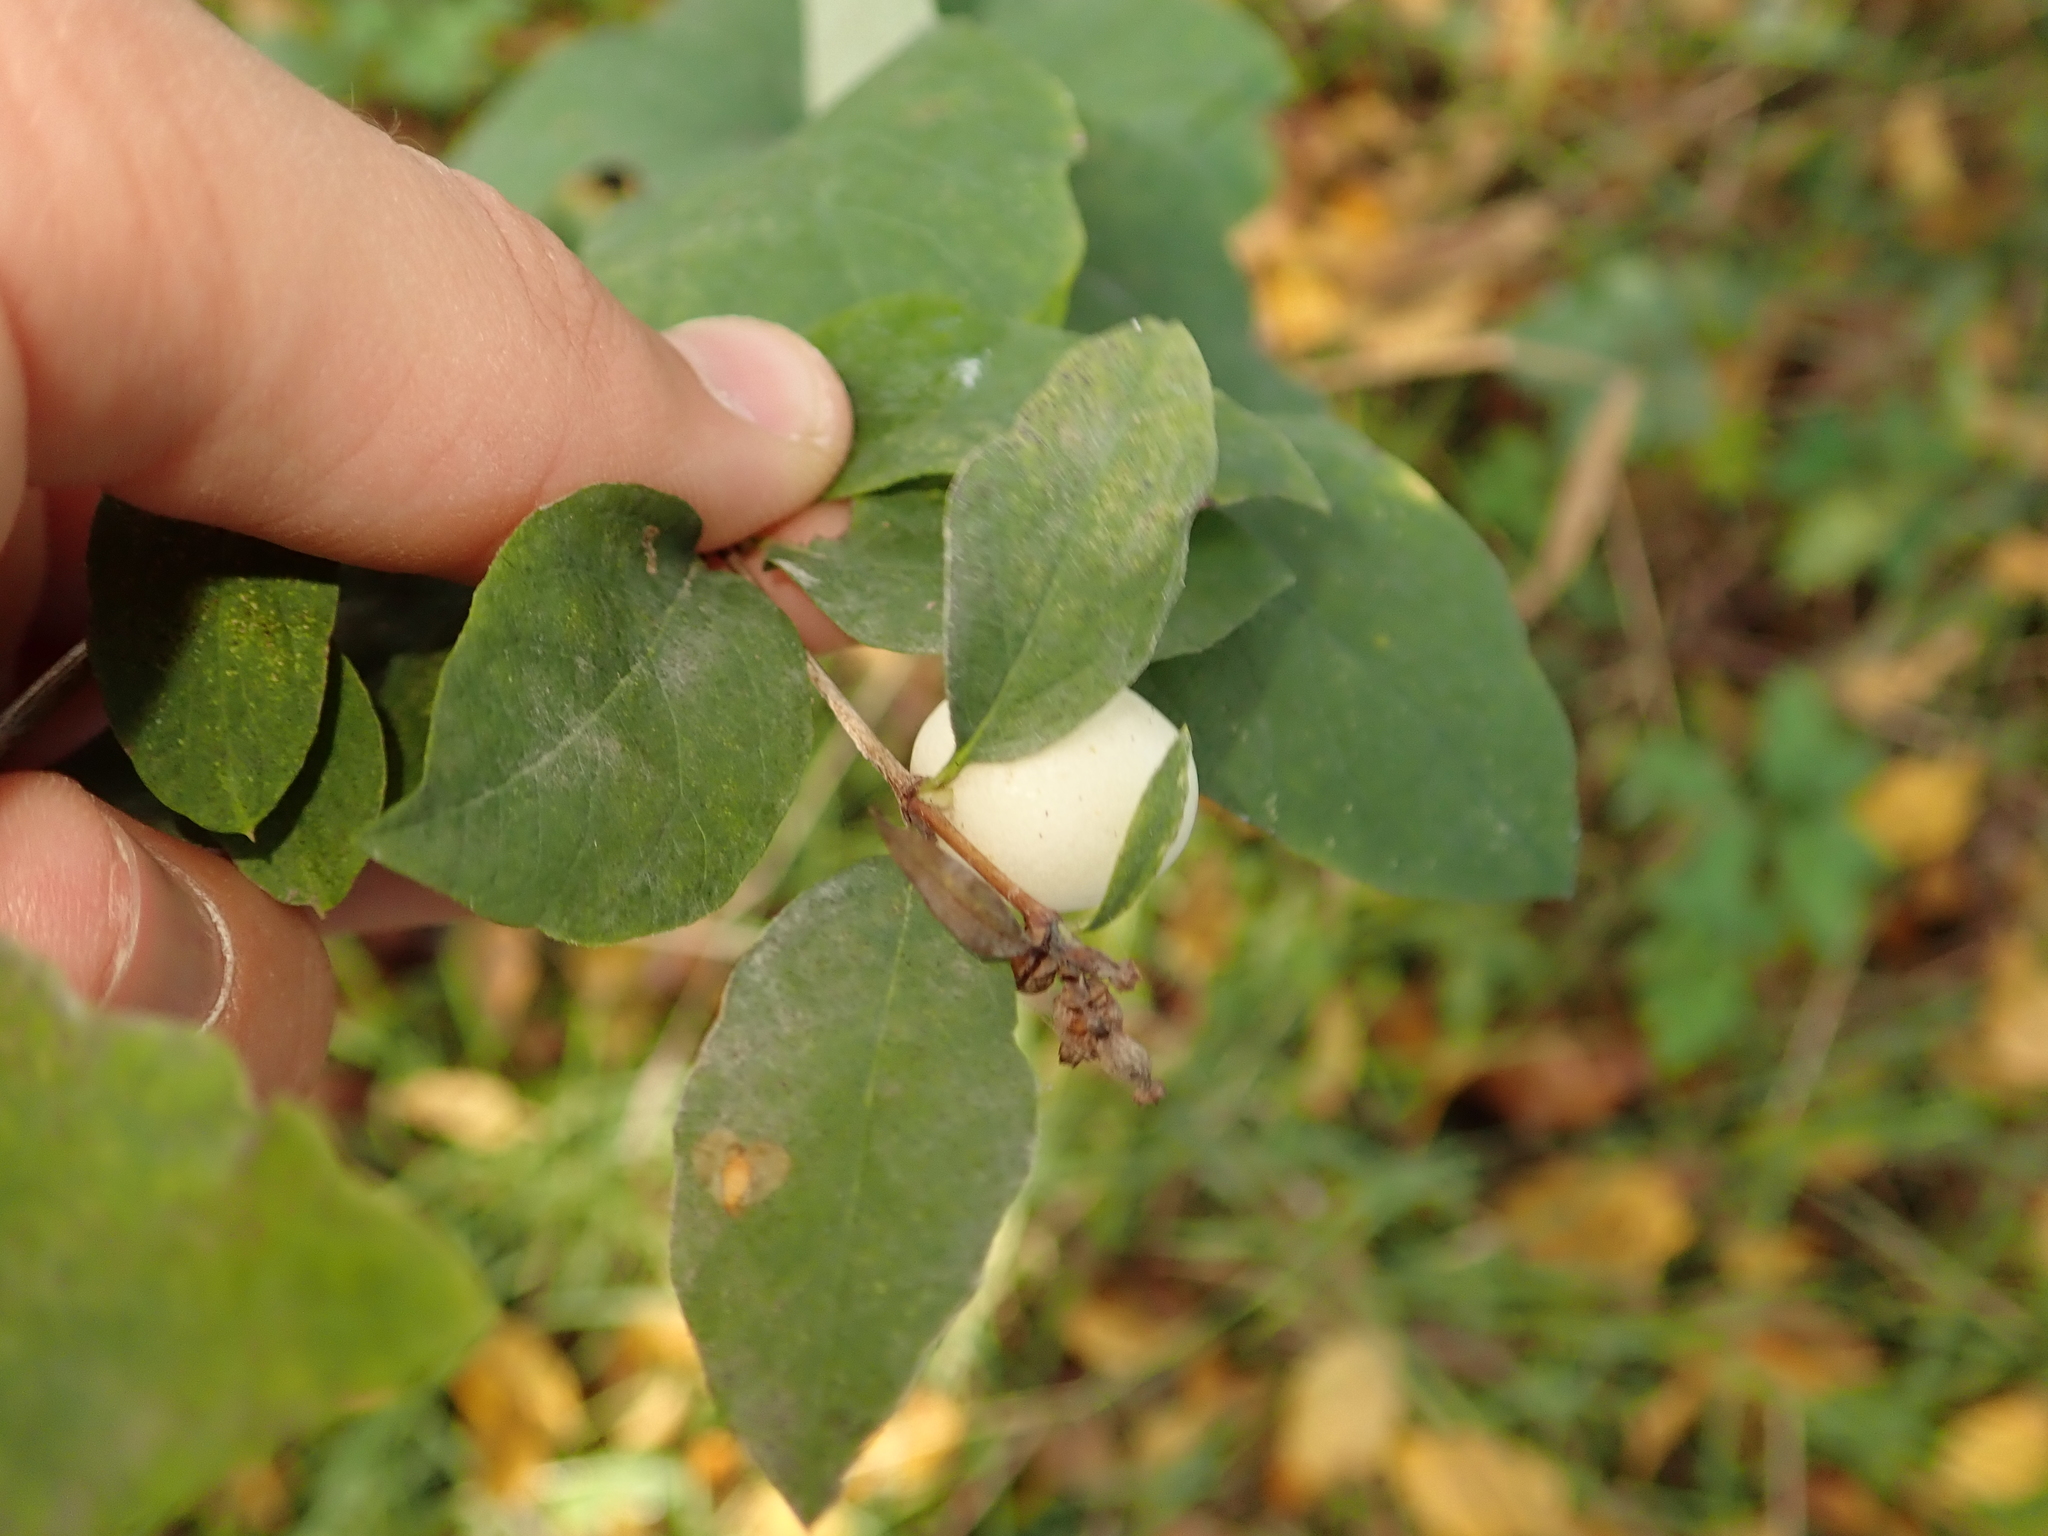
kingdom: Plantae
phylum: Tracheophyta
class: Magnoliopsida
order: Dipsacales
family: Caprifoliaceae
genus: Symphoricarpos
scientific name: Symphoricarpos albus
